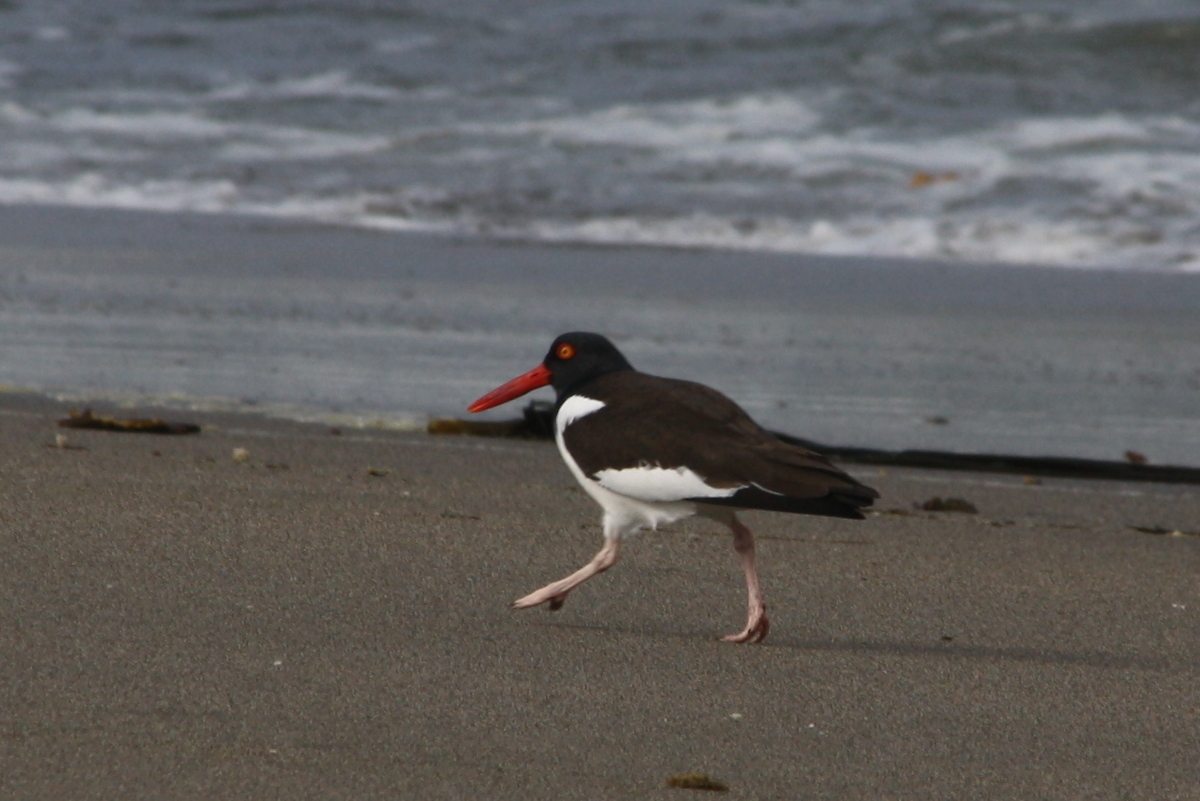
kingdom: Animalia
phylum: Chordata
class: Aves
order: Charadriiformes
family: Haematopodidae
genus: Haematopus
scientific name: Haematopus palliatus
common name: American oystercatcher
